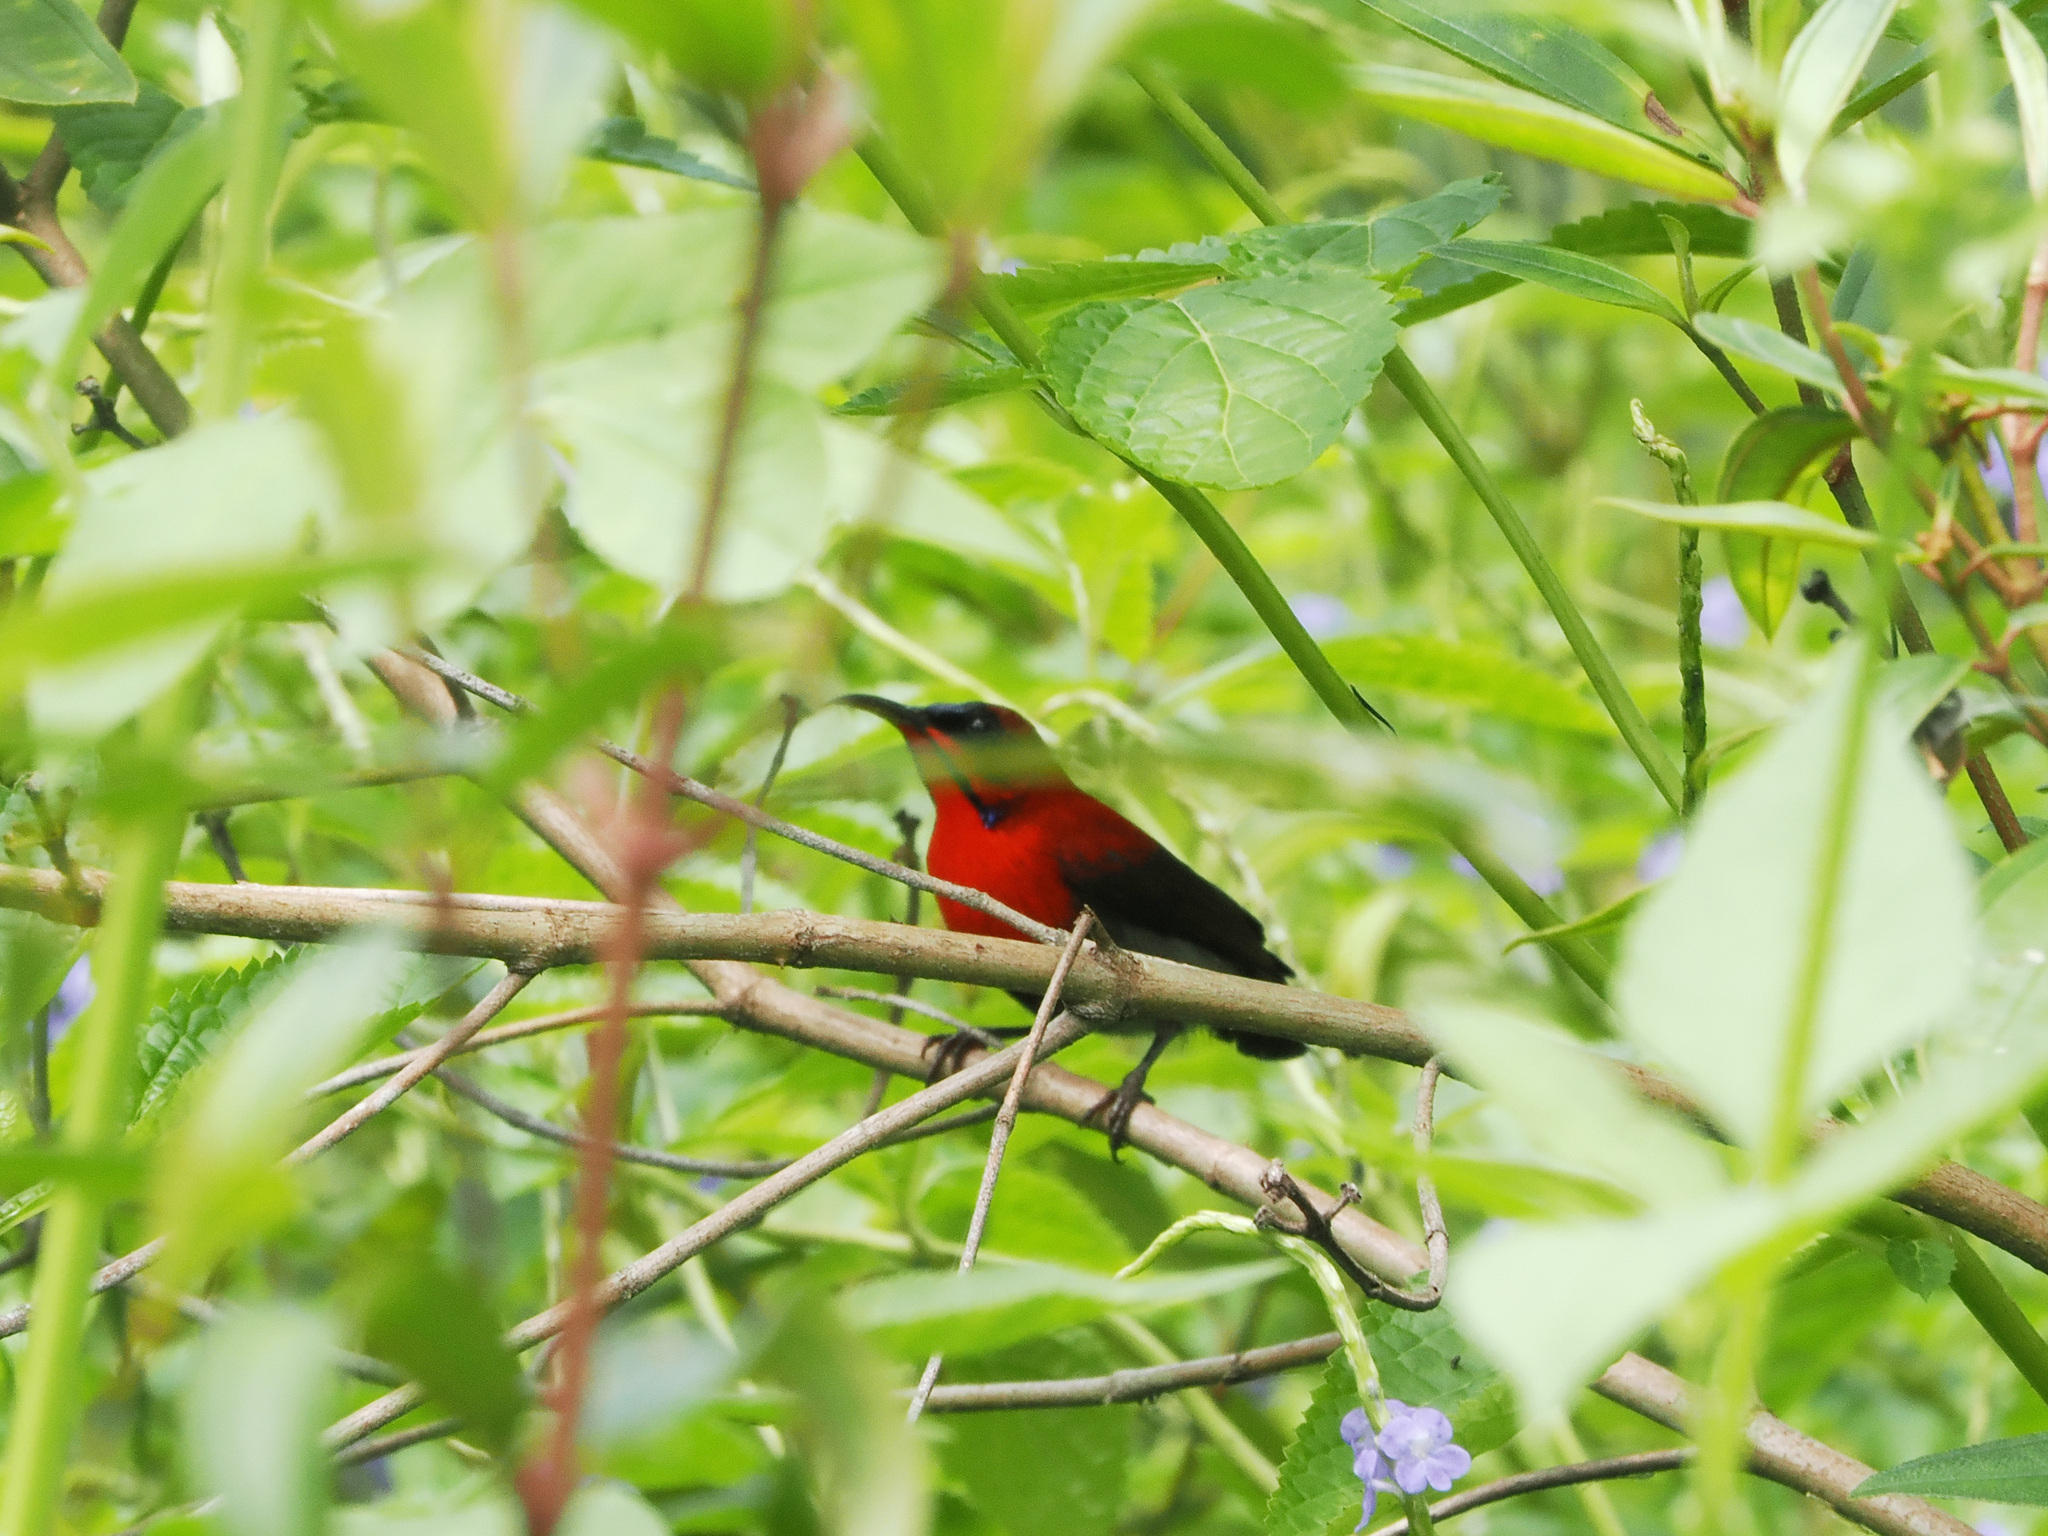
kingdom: Animalia
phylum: Chordata
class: Aves
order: Passeriformes
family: Nectariniidae
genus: Aethopyga
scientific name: Aethopyga siparaja
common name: Crimson sunbird
